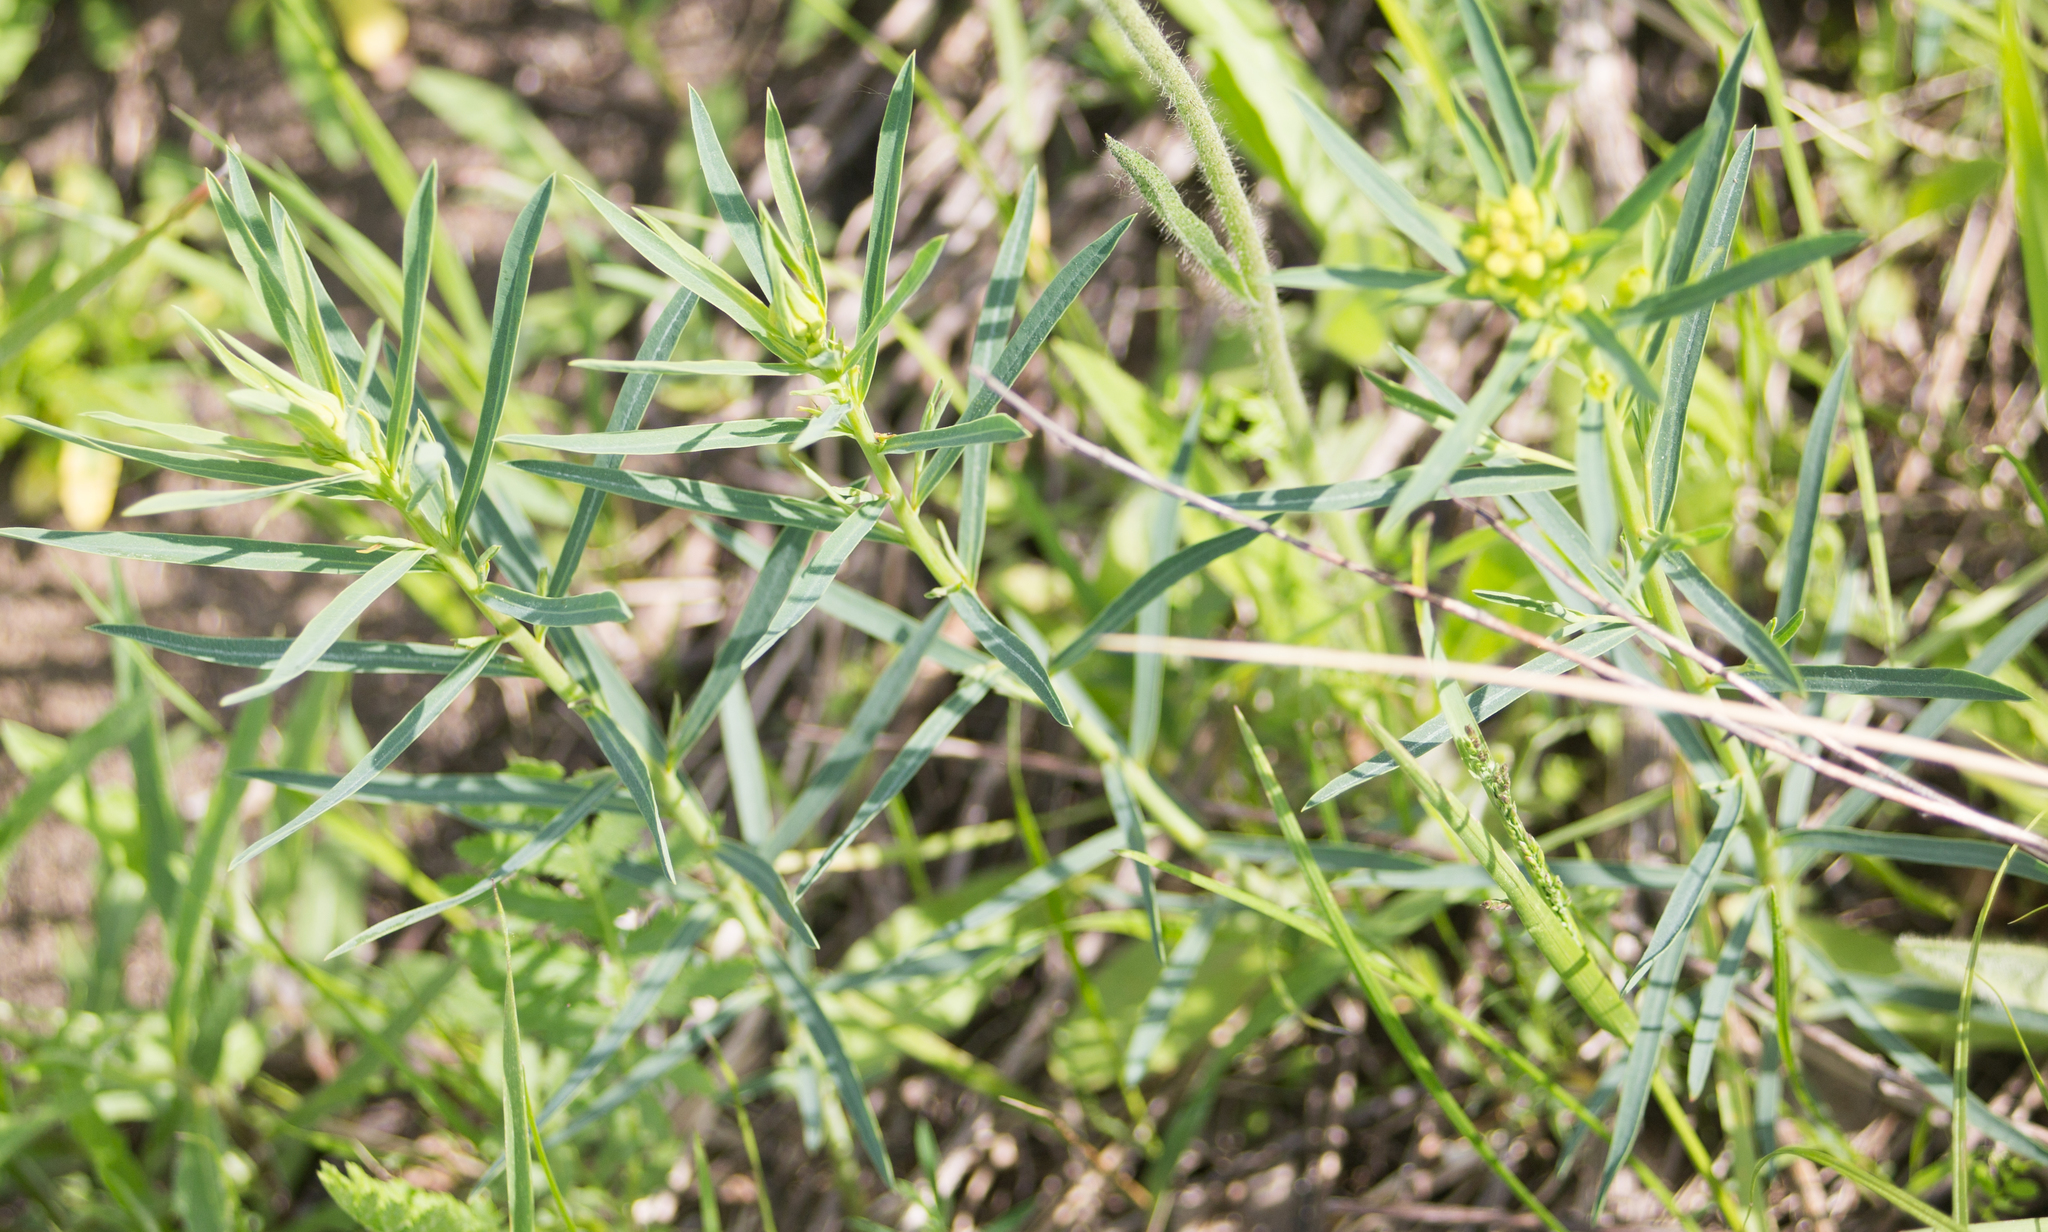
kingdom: Plantae
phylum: Tracheophyta
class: Magnoliopsida
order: Malpighiales
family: Euphorbiaceae
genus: Euphorbia
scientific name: Euphorbia virgata
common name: Leafy spurge
